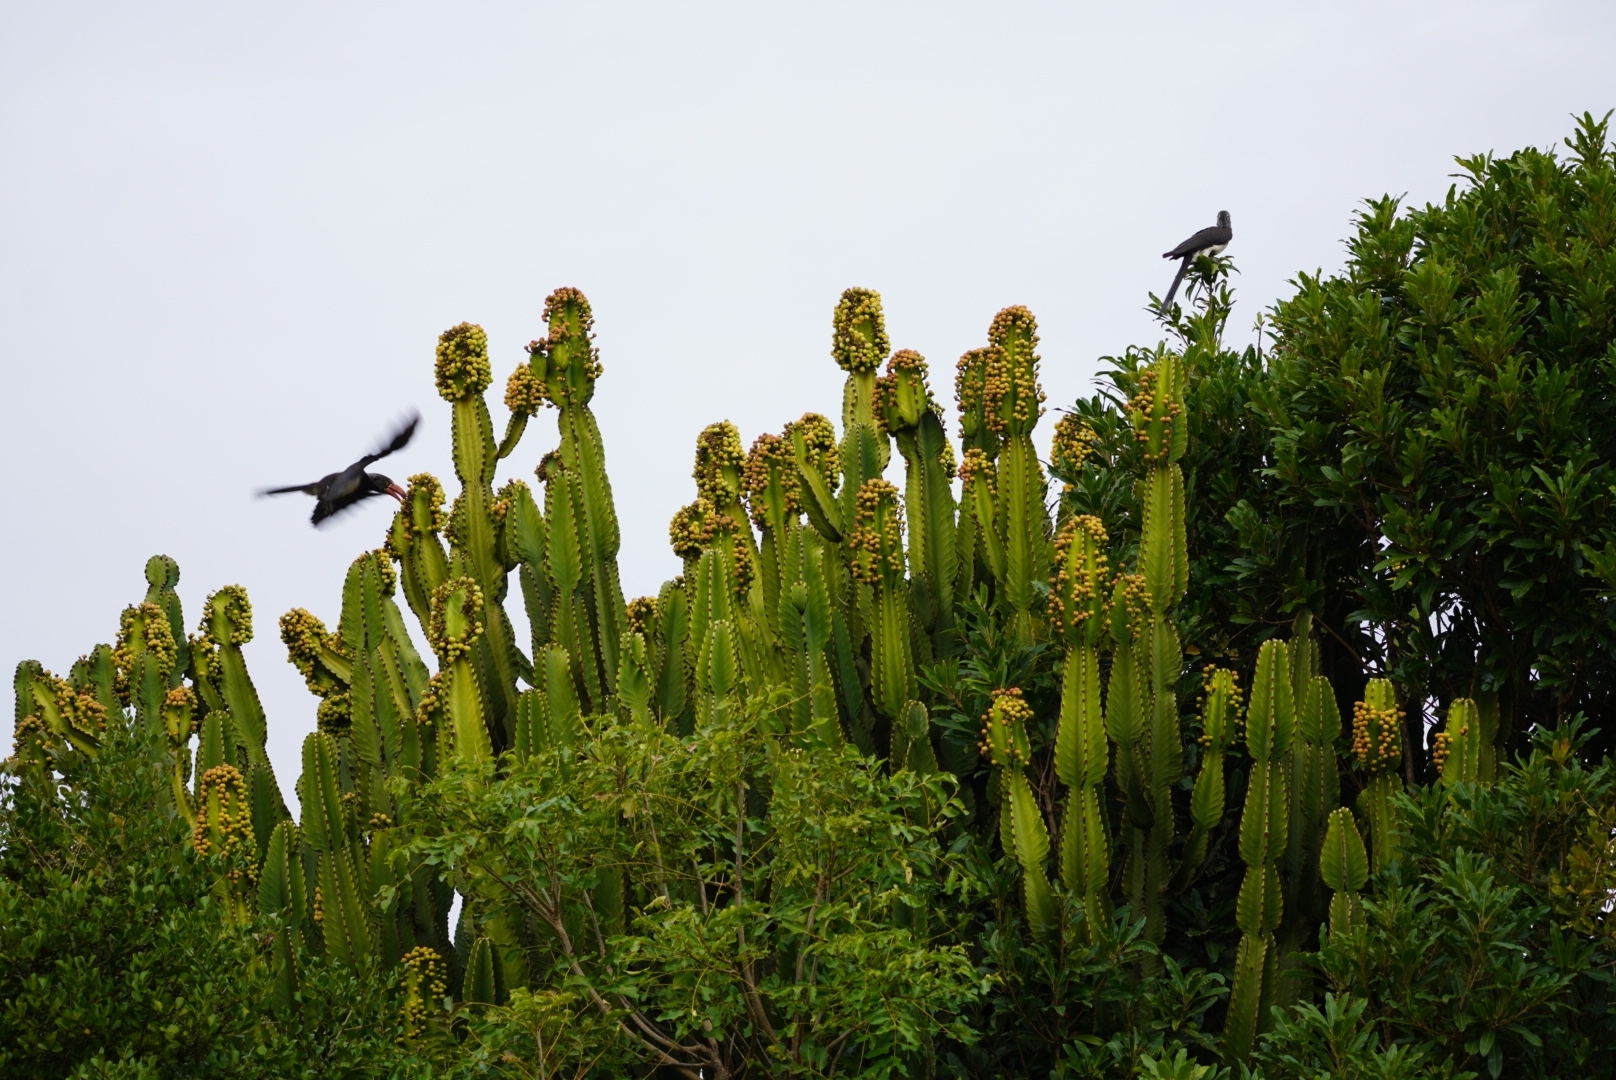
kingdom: Animalia
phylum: Chordata
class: Aves
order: Bucerotiformes
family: Bucerotidae
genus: Lophoceros
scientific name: Lophoceros alboterminatus
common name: Crowned hornbill
